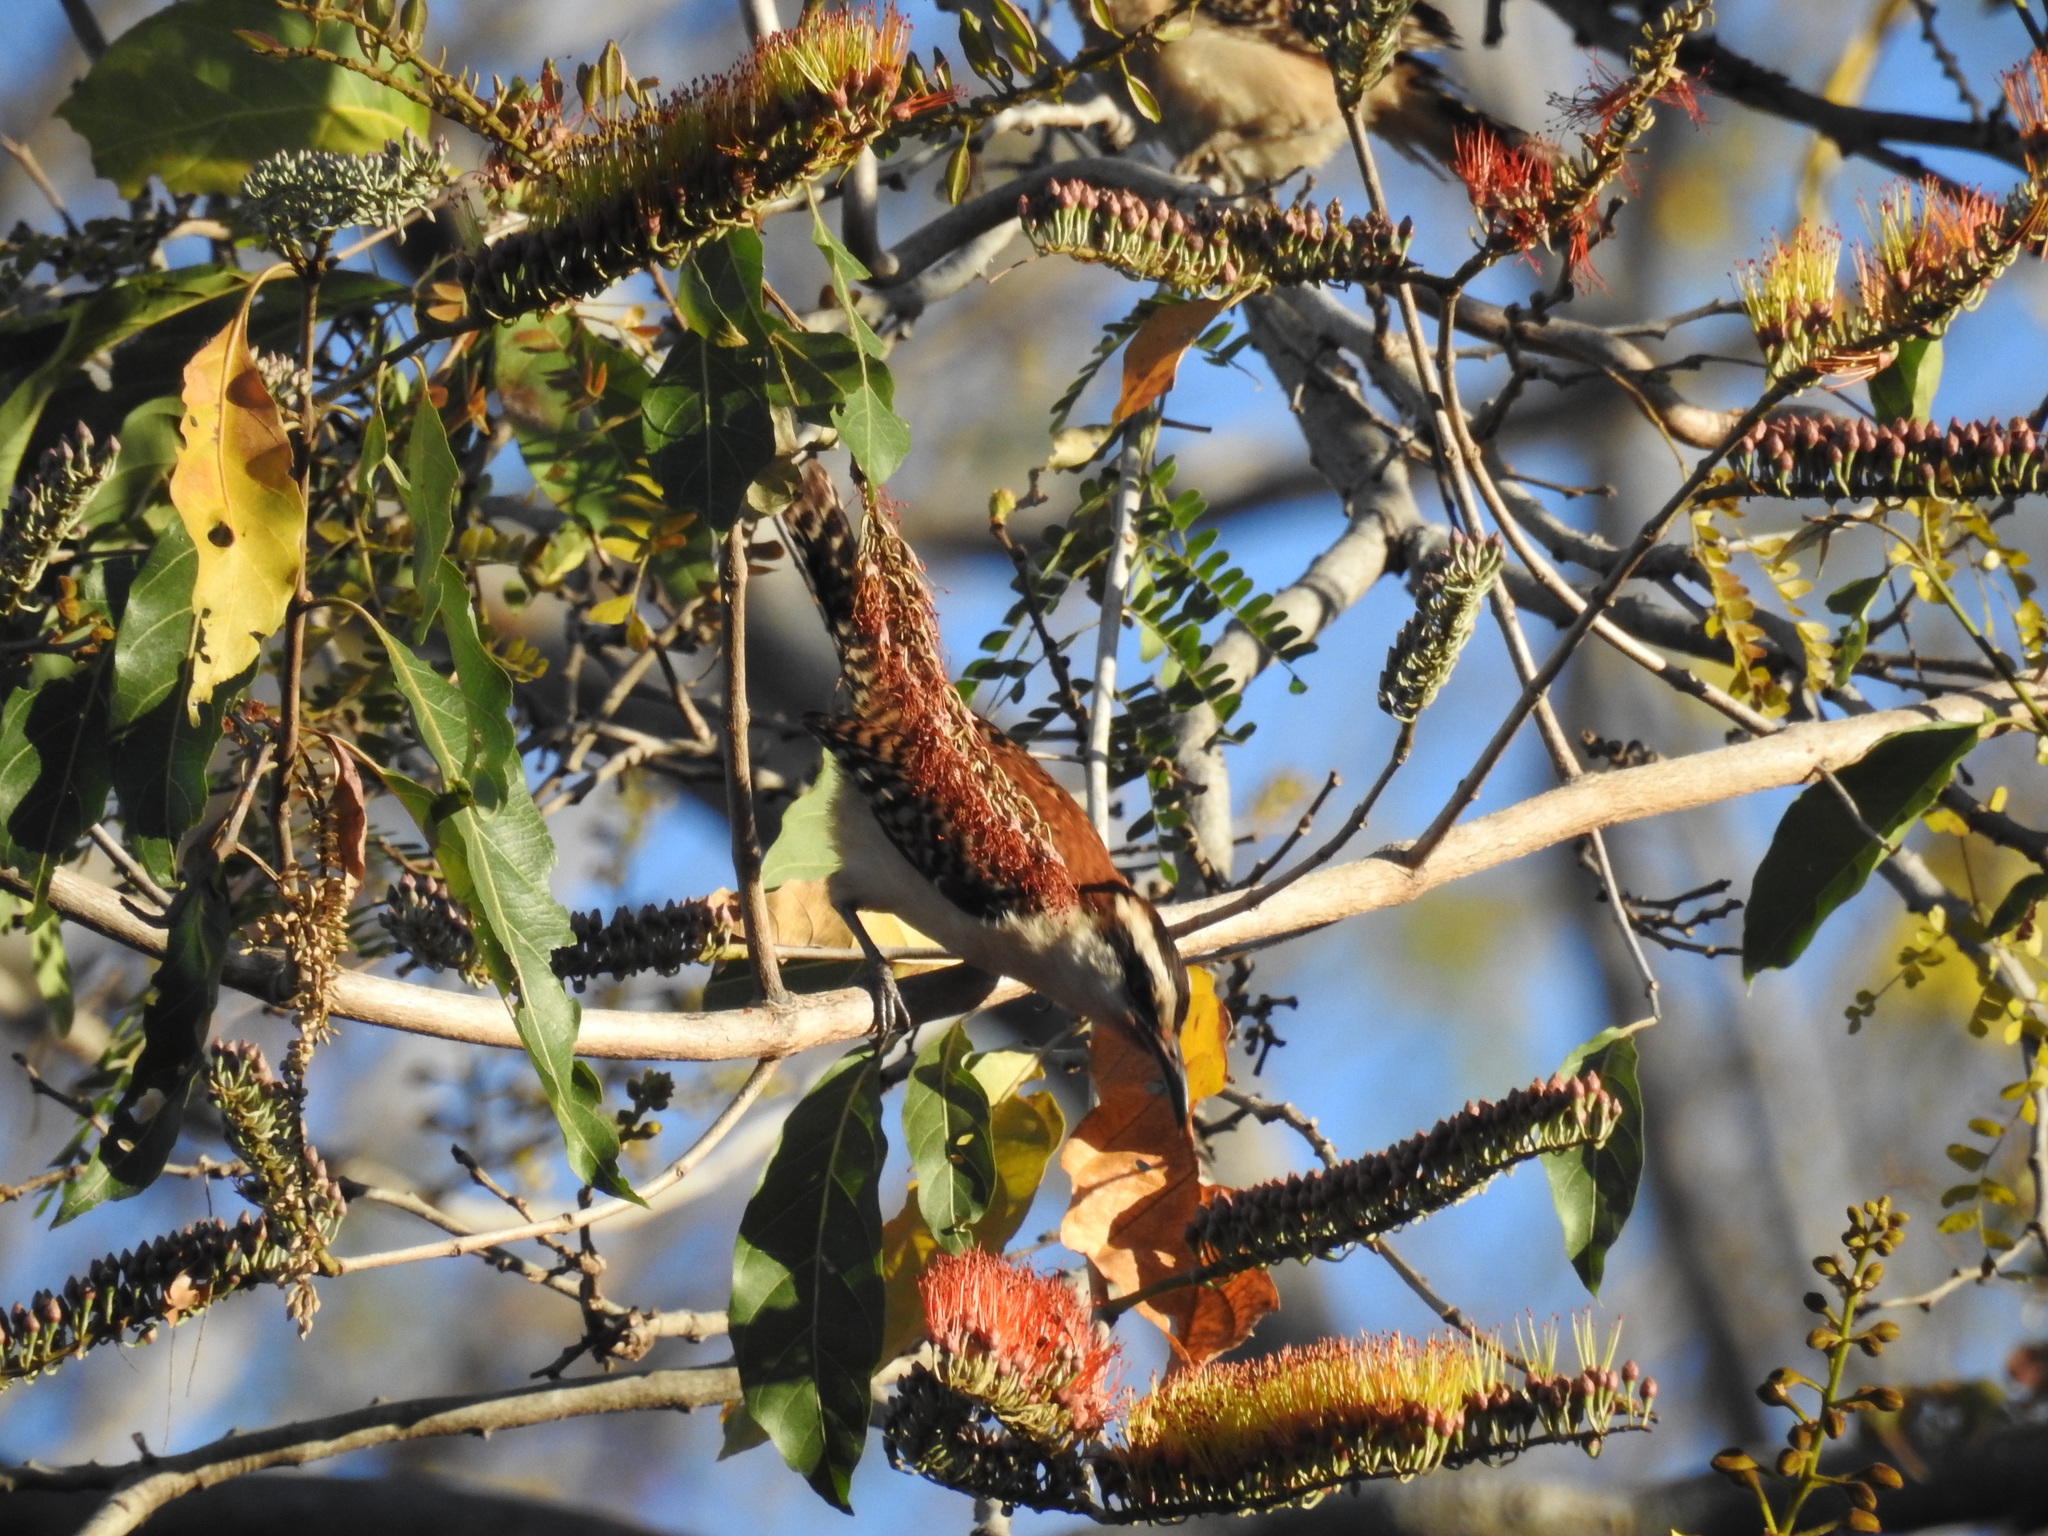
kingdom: Animalia
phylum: Chordata
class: Aves
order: Passeriformes
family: Troglodytidae
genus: Campylorhynchus
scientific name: Campylorhynchus rufinucha
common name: Rufous-naped wren
